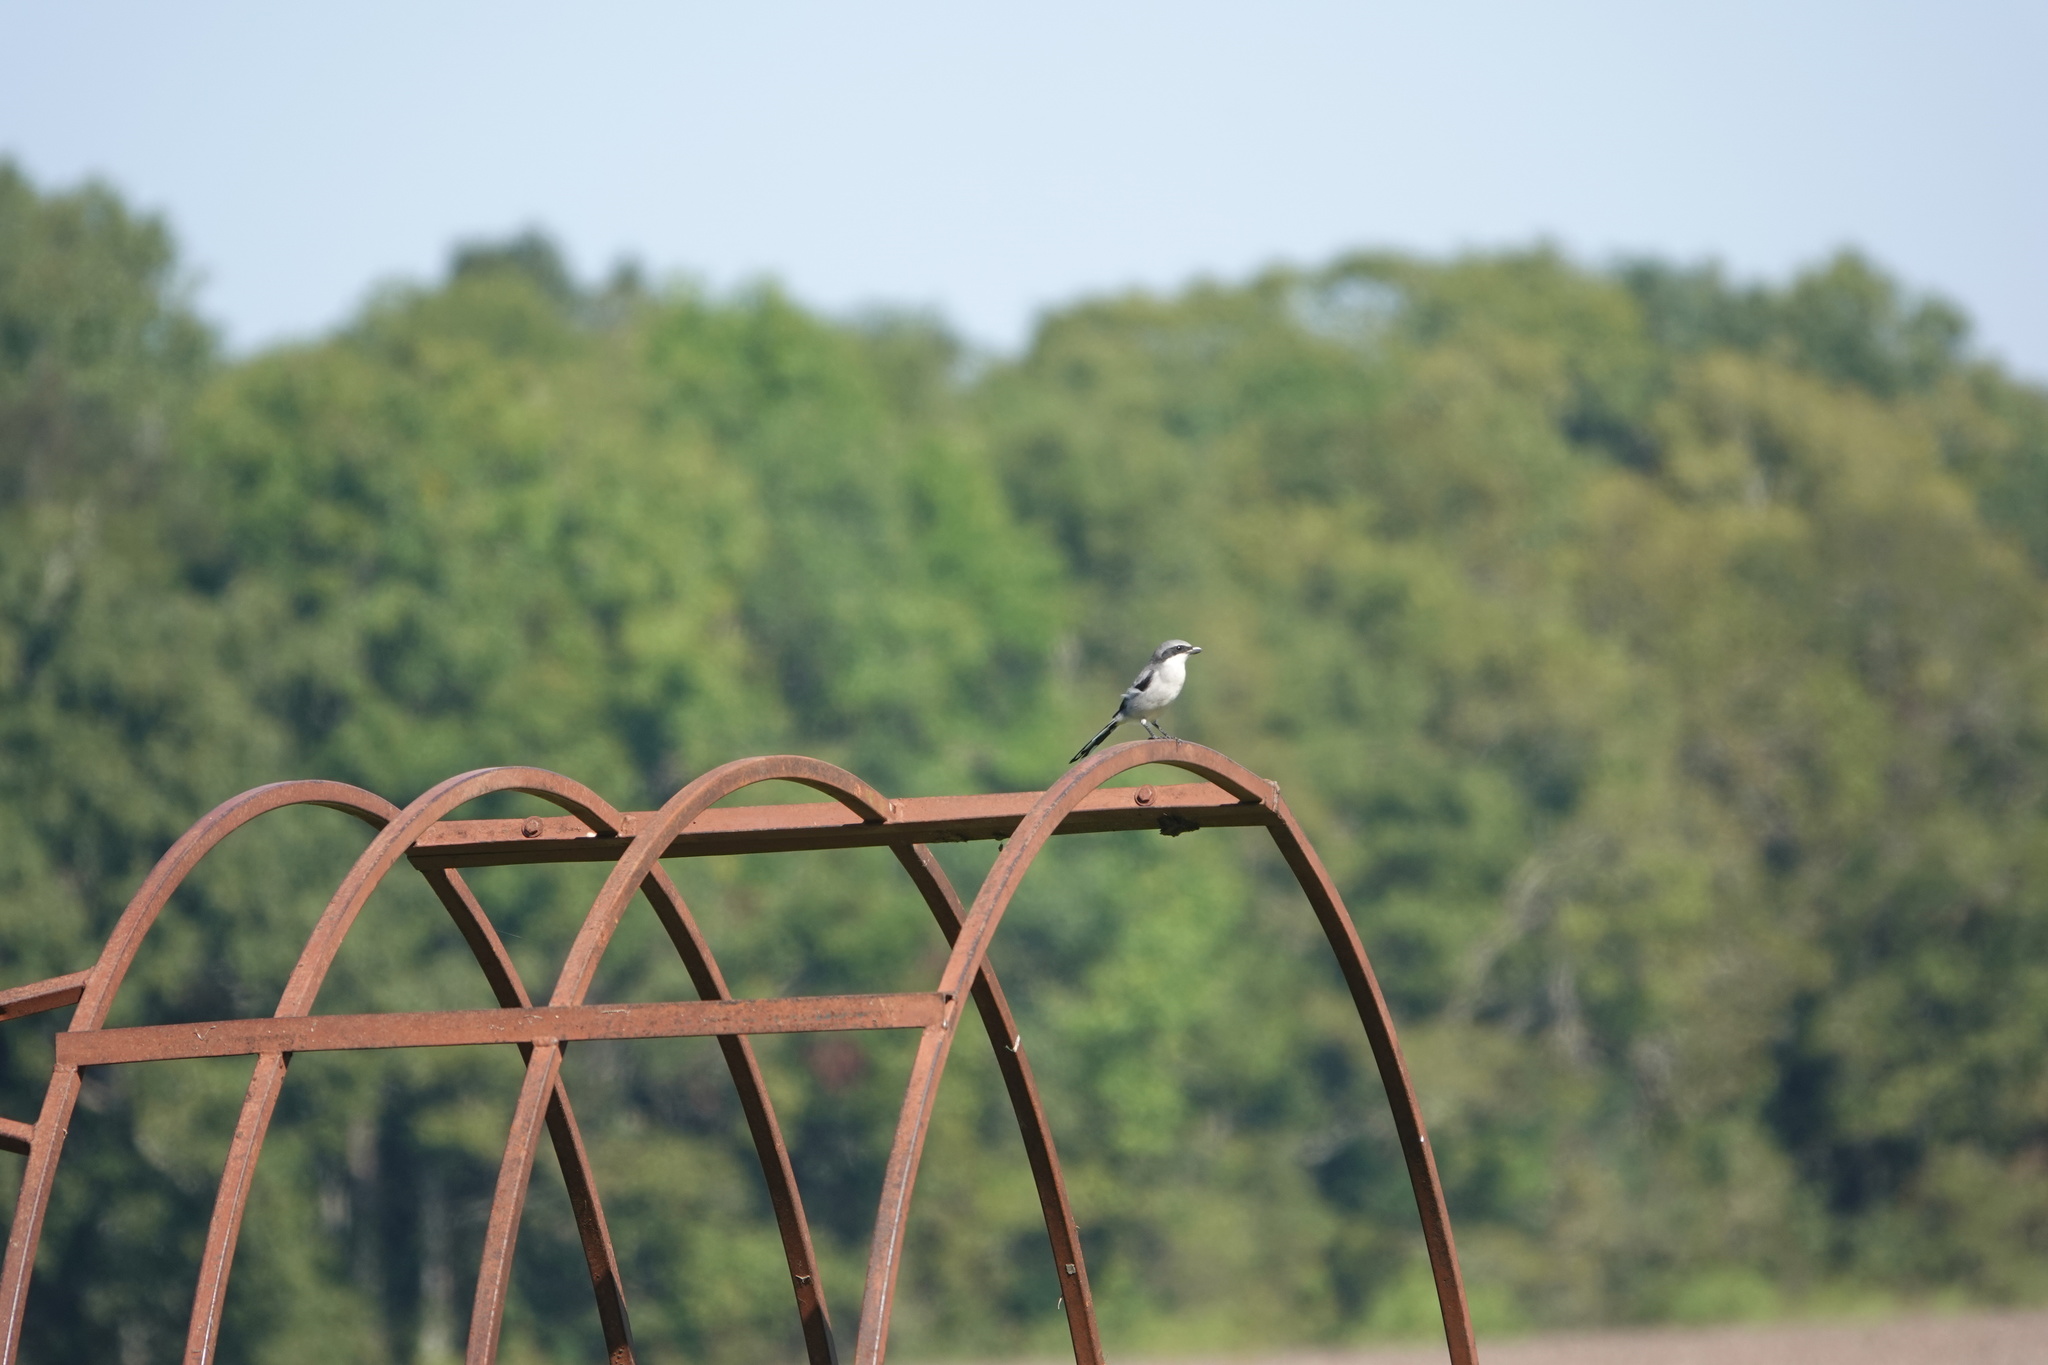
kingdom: Animalia
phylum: Chordata
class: Aves
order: Passeriformes
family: Laniidae
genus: Lanius
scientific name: Lanius ludovicianus
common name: Loggerhead shrike
